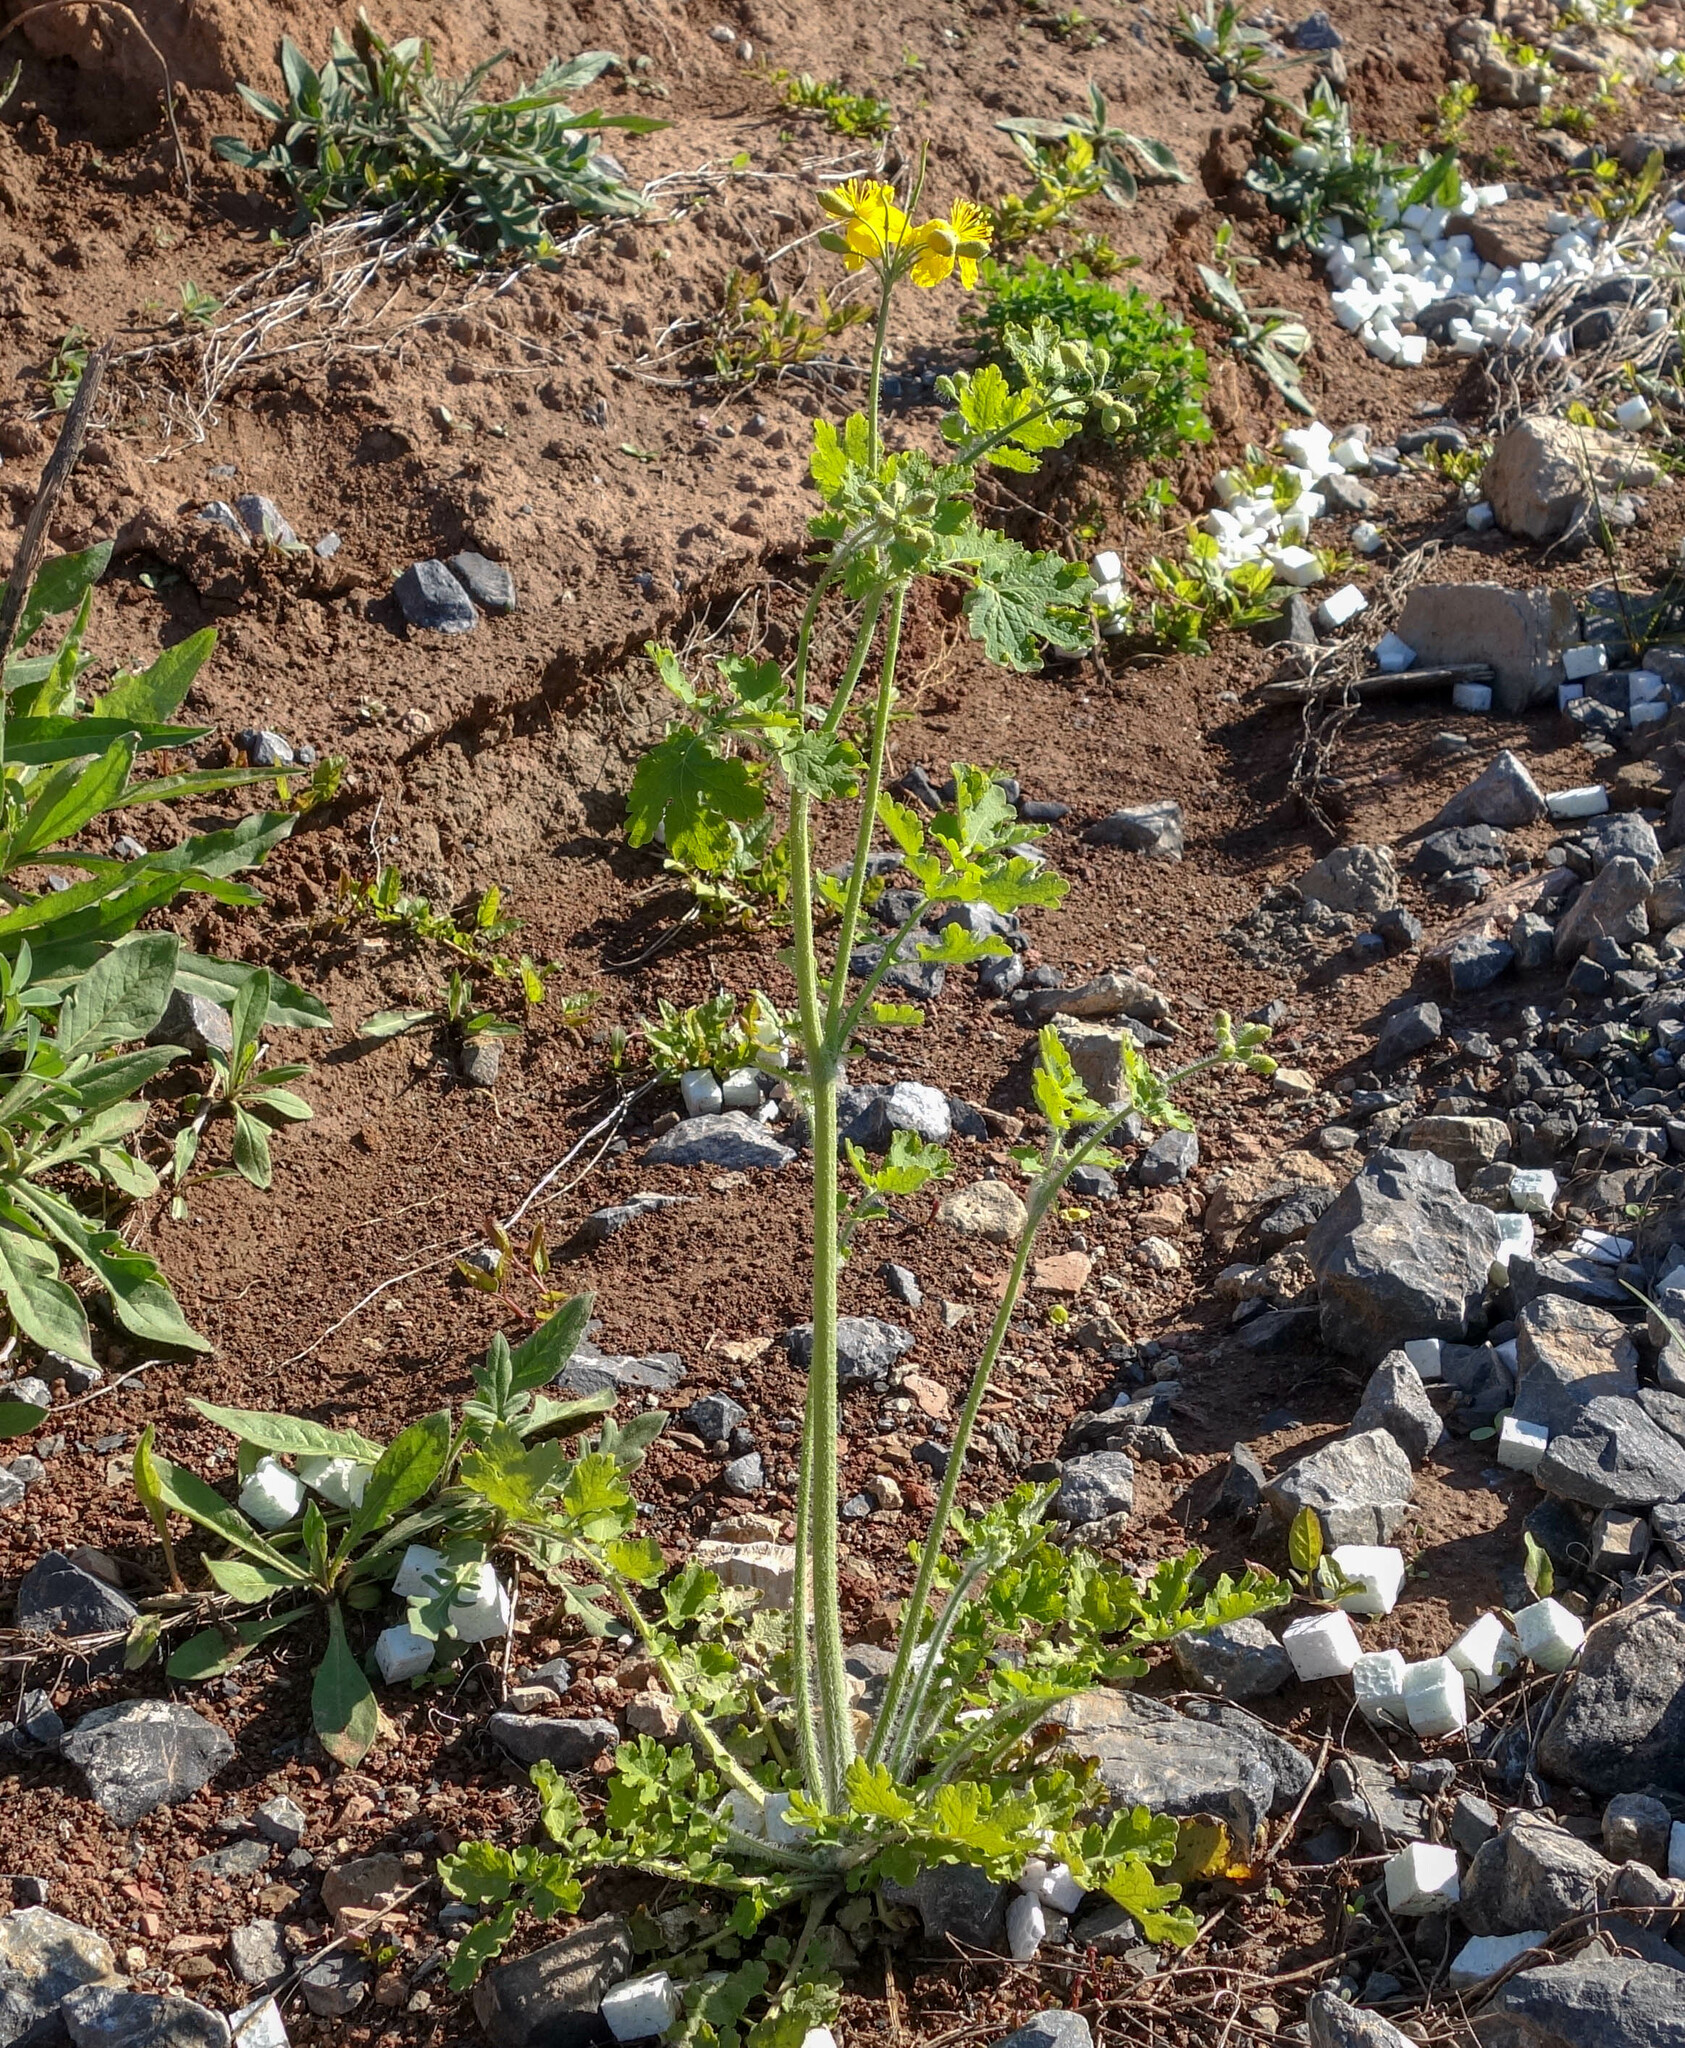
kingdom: Plantae
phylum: Tracheophyta
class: Magnoliopsida
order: Ranunculales
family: Papaveraceae
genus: Chelidonium
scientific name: Chelidonium majus
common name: Greater celandine
